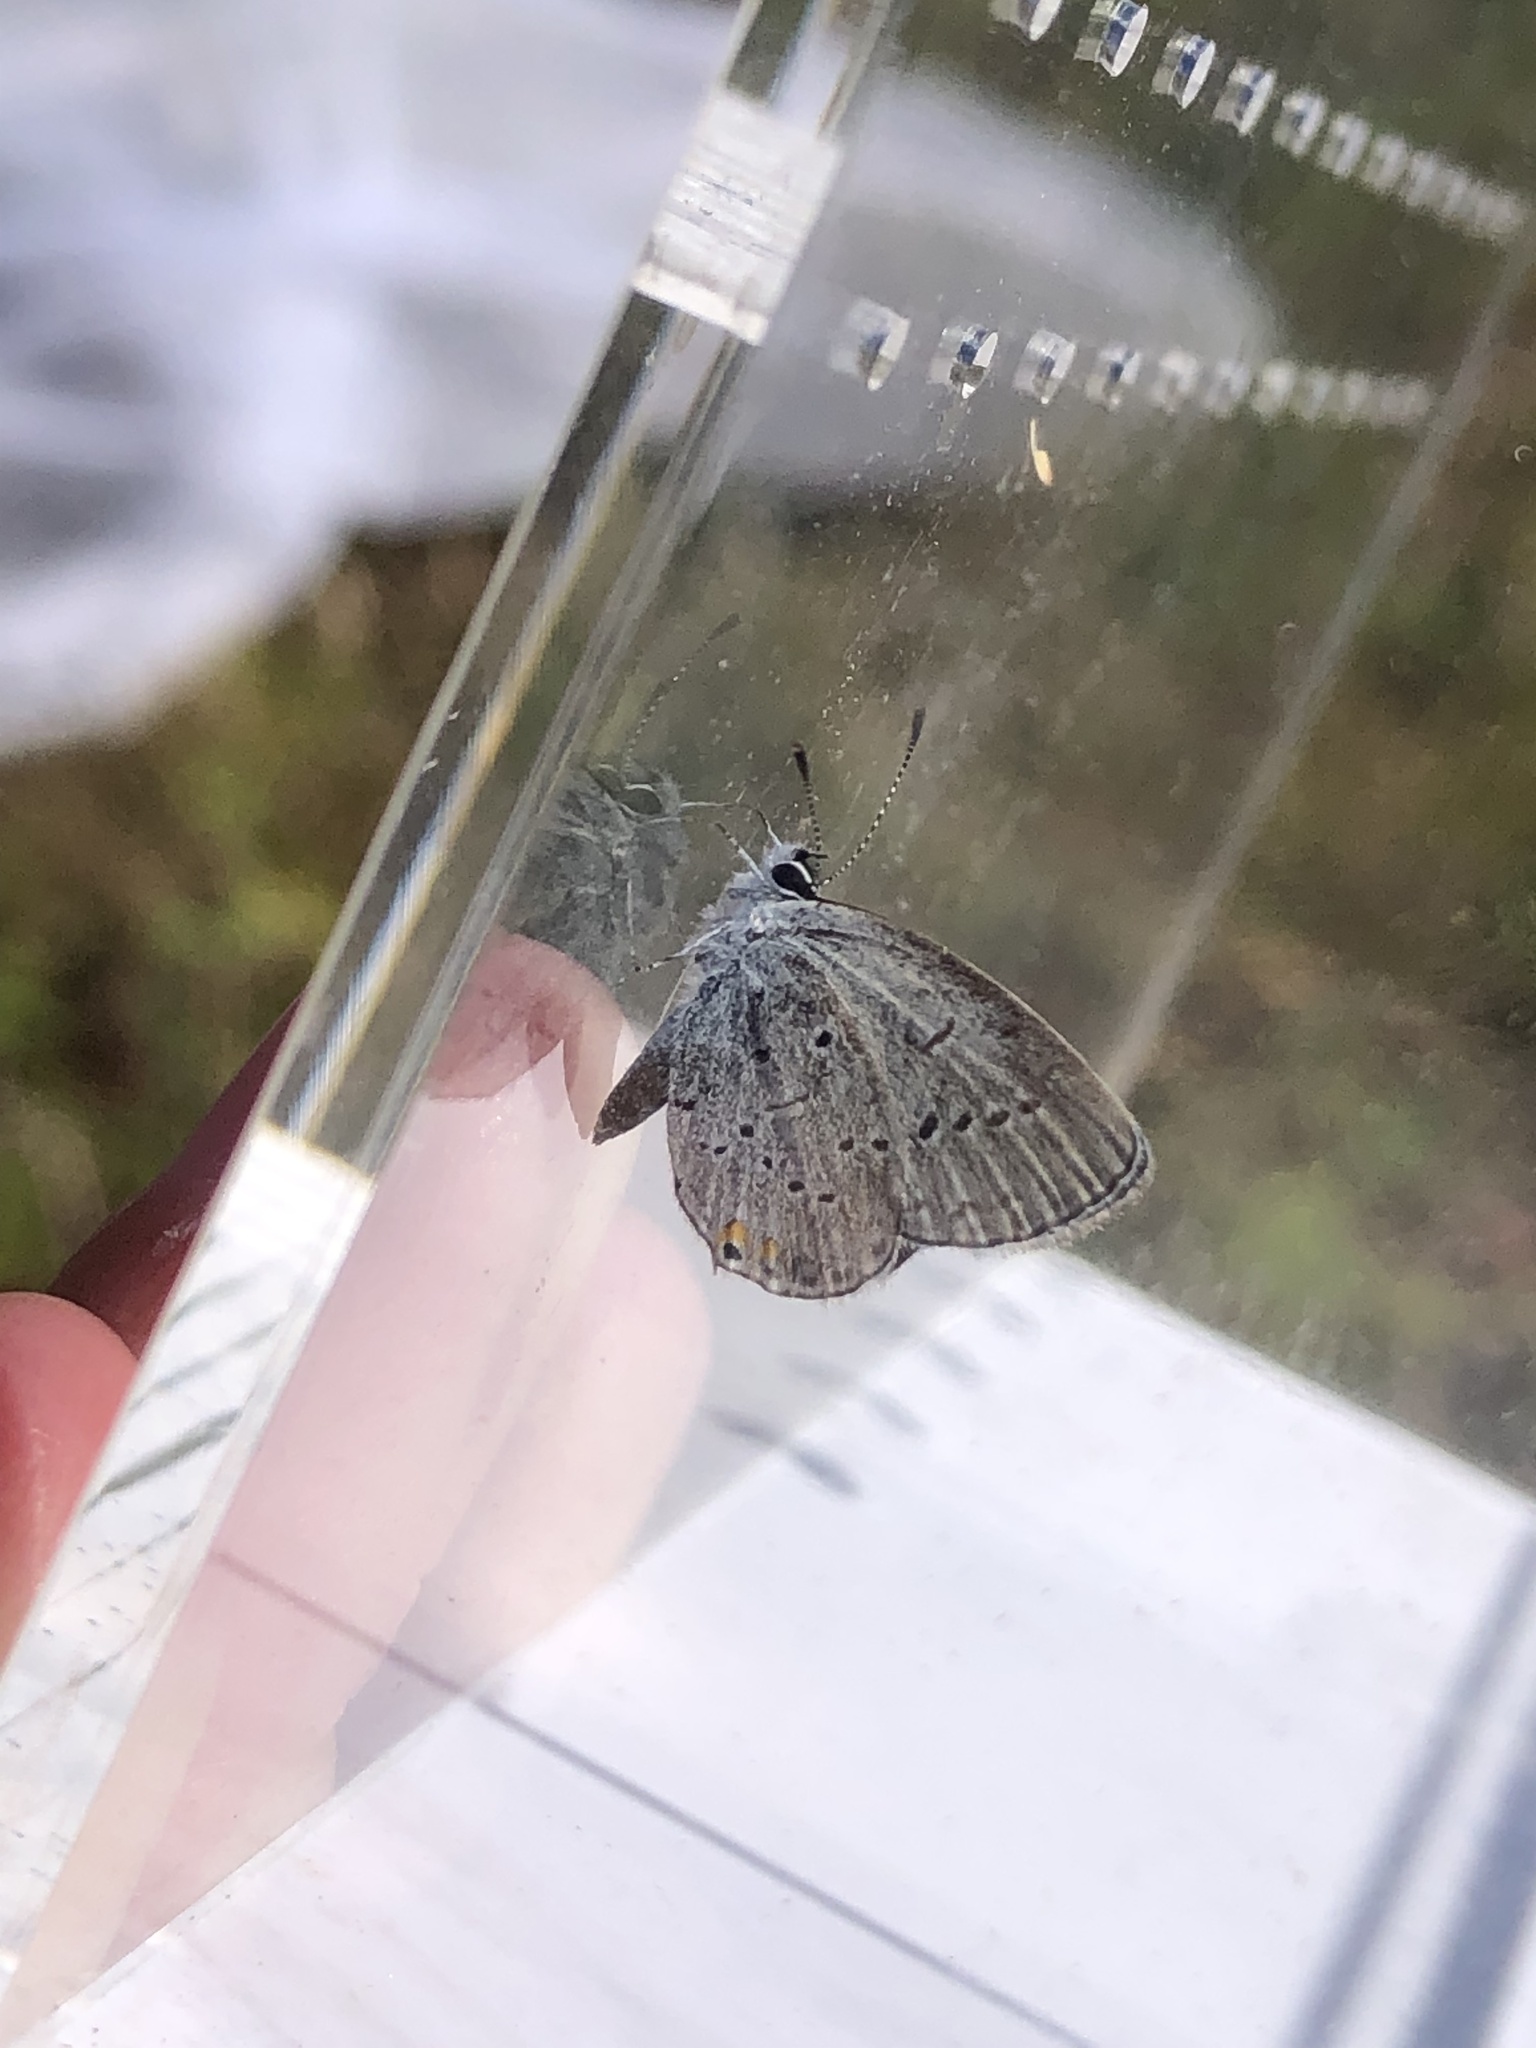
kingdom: Animalia
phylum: Arthropoda
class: Insecta
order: Lepidoptera
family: Lycaenidae
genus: Elkalyce
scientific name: Elkalyce comyntas
